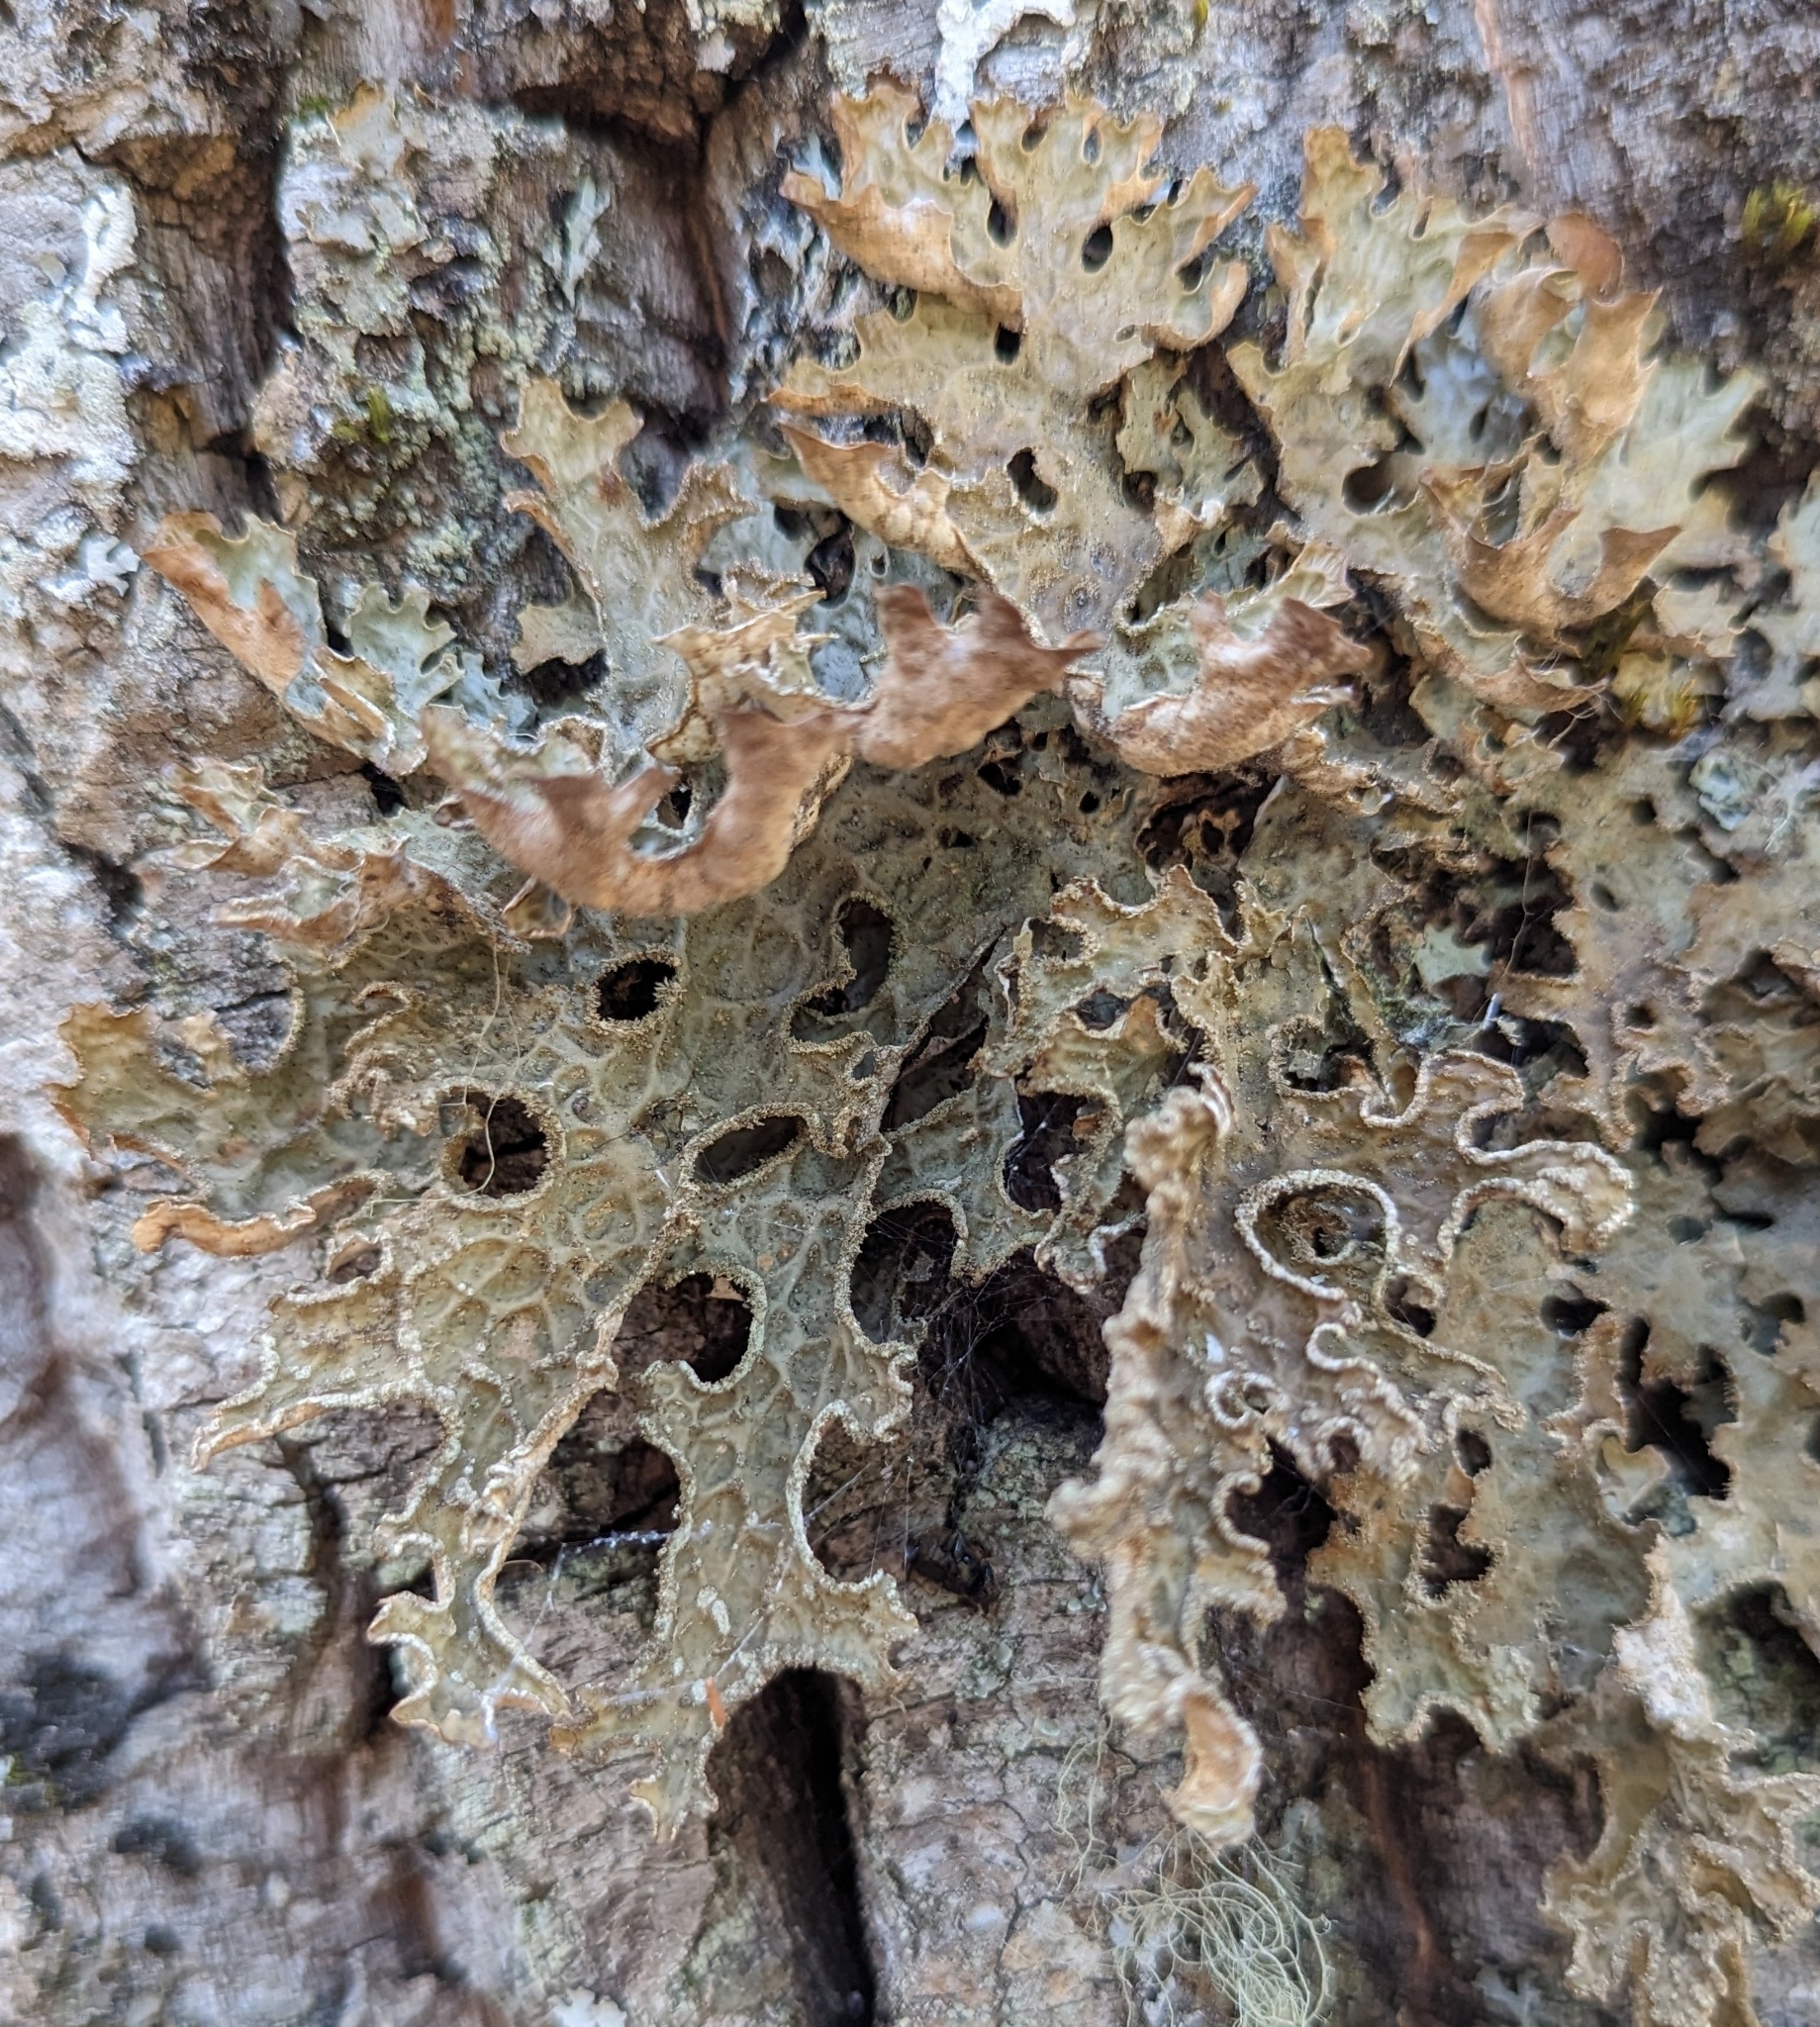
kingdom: Fungi
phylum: Ascomycota
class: Lecanoromycetes
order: Peltigerales
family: Lobariaceae
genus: Lobaria
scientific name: Lobaria pulmonaria
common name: Lungwort
